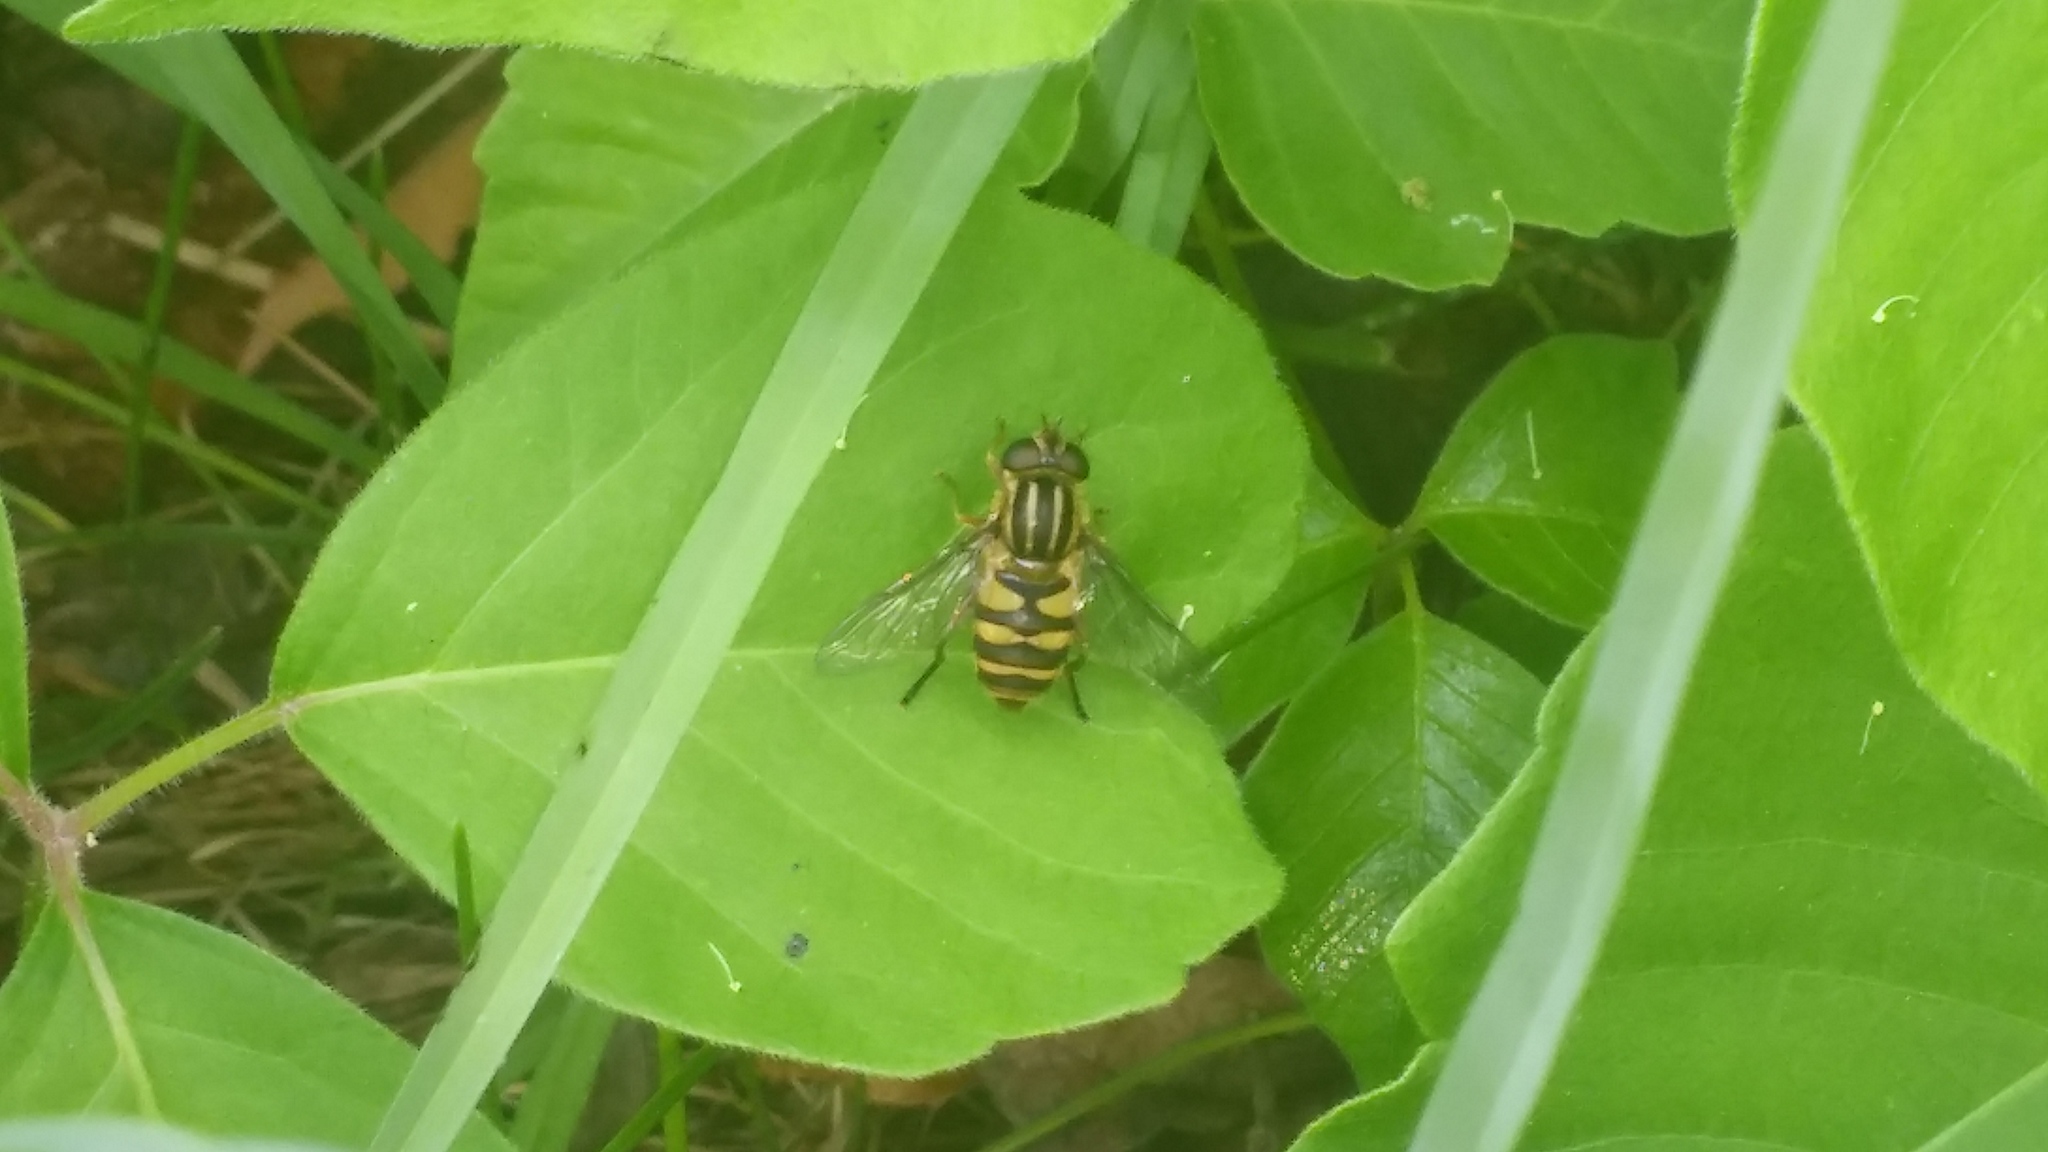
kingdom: Animalia
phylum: Arthropoda
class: Insecta
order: Diptera
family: Syrphidae
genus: Helophilus
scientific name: Helophilus fasciatus
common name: Narrow-headed marsh fly
